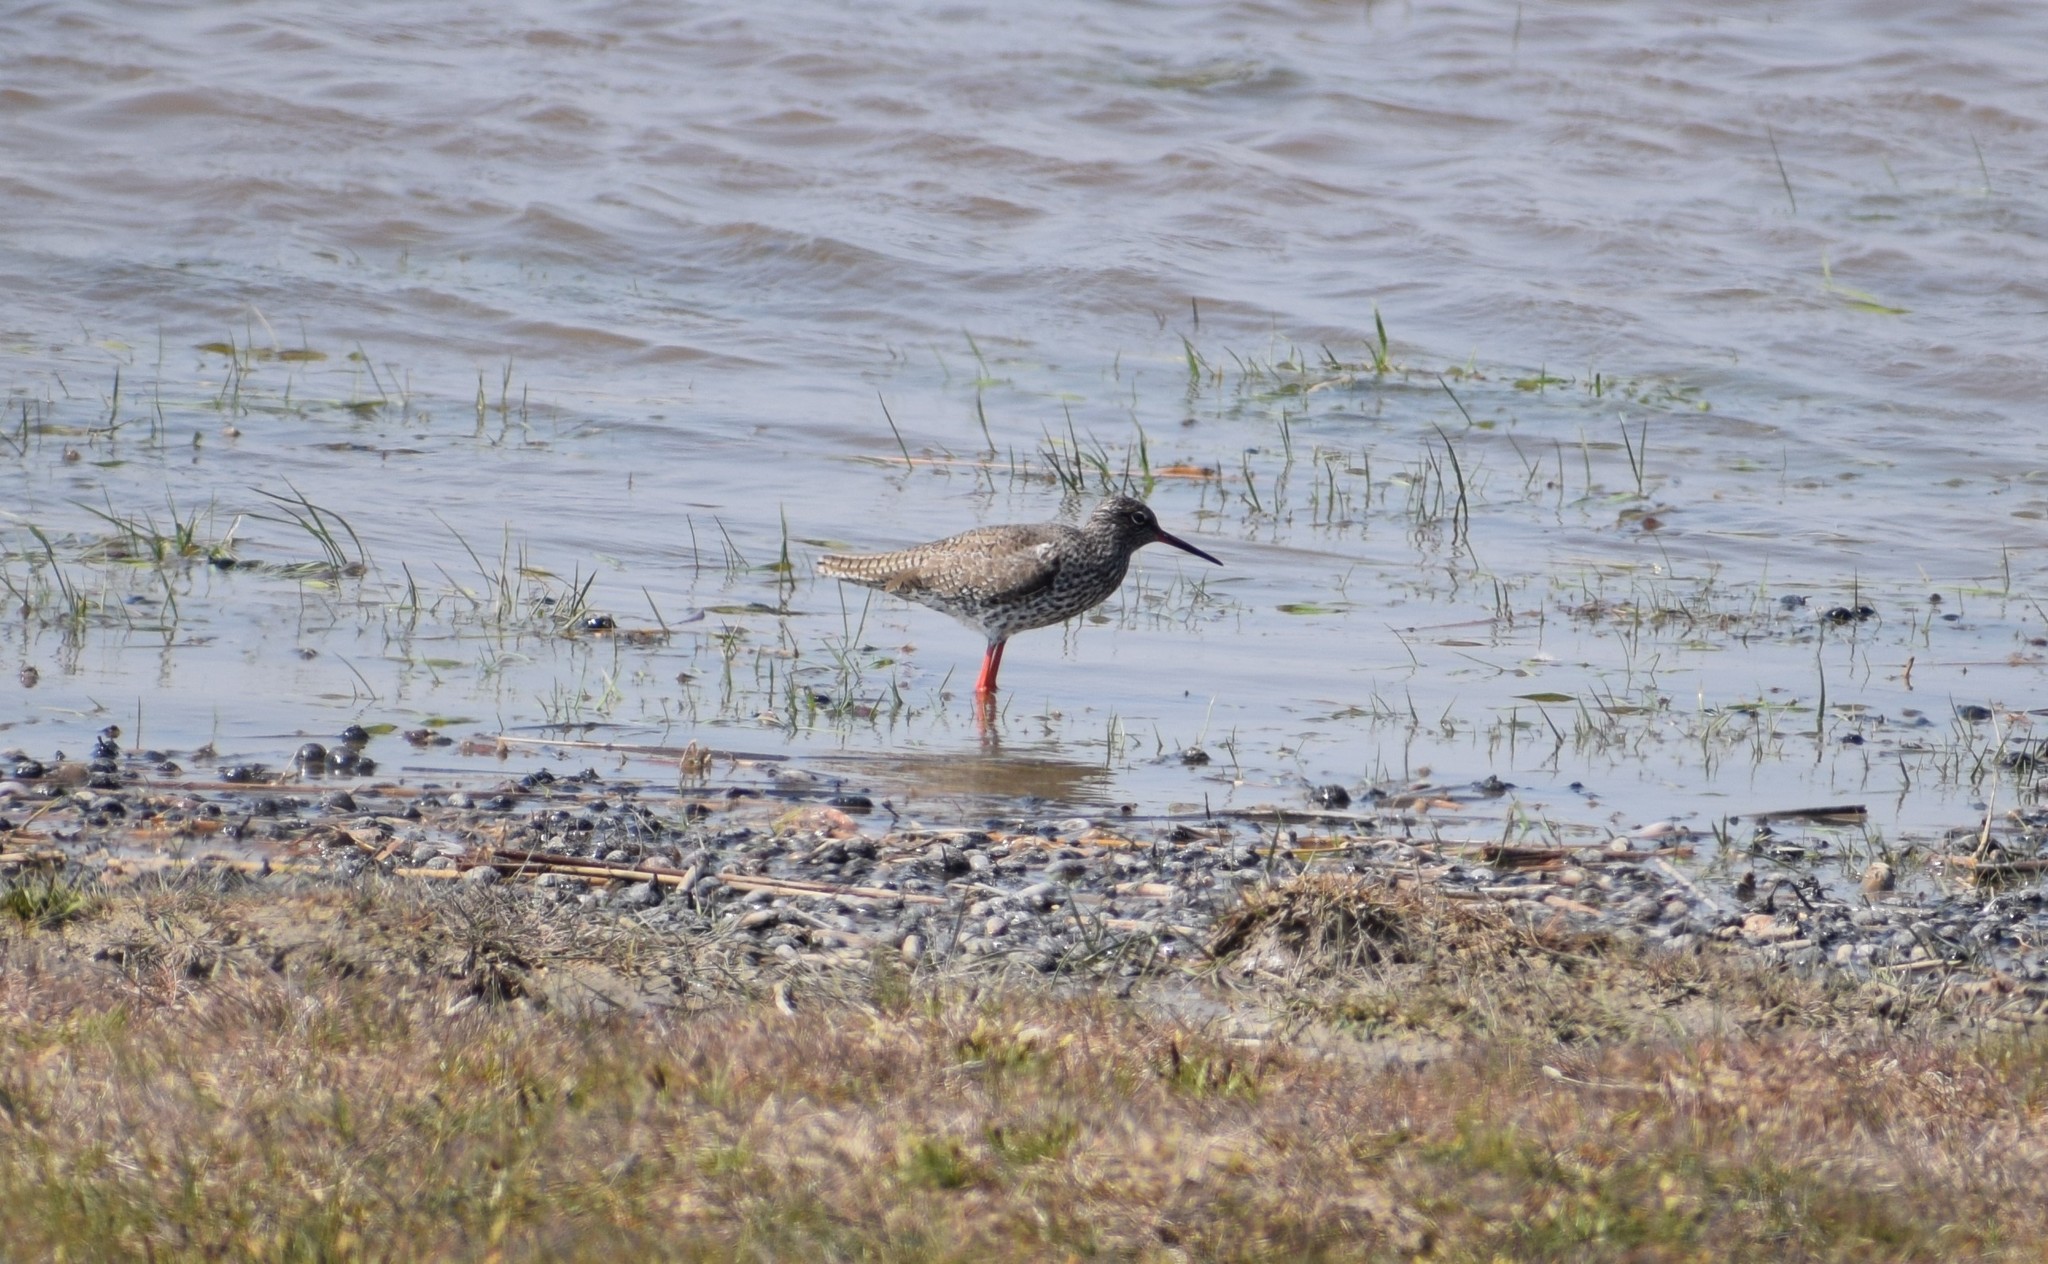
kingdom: Animalia
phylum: Chordata
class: Aves
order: Charadriiformes
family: Scolopacidae
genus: Tringa
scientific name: Tringa totanus
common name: Common redshank
